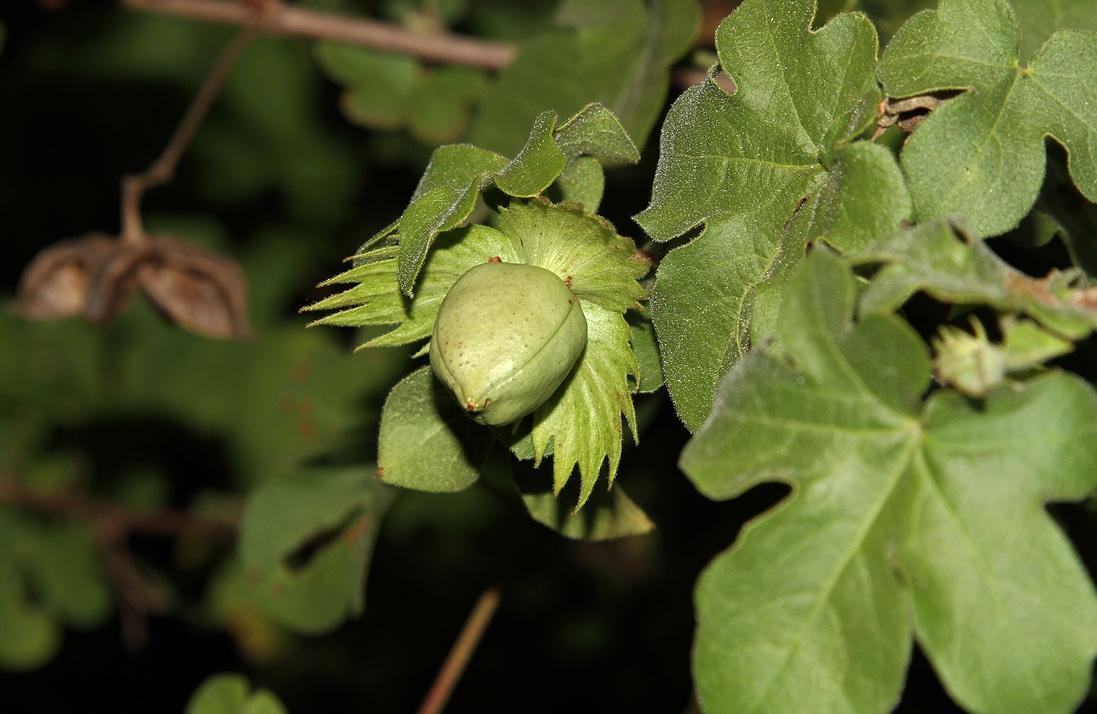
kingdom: Plantae
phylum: Tracheophyta
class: Magnoliopsida
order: Malvales
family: Malvaceae
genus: Gossypium
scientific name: Gossypium herbaceum
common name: Levant cotton
